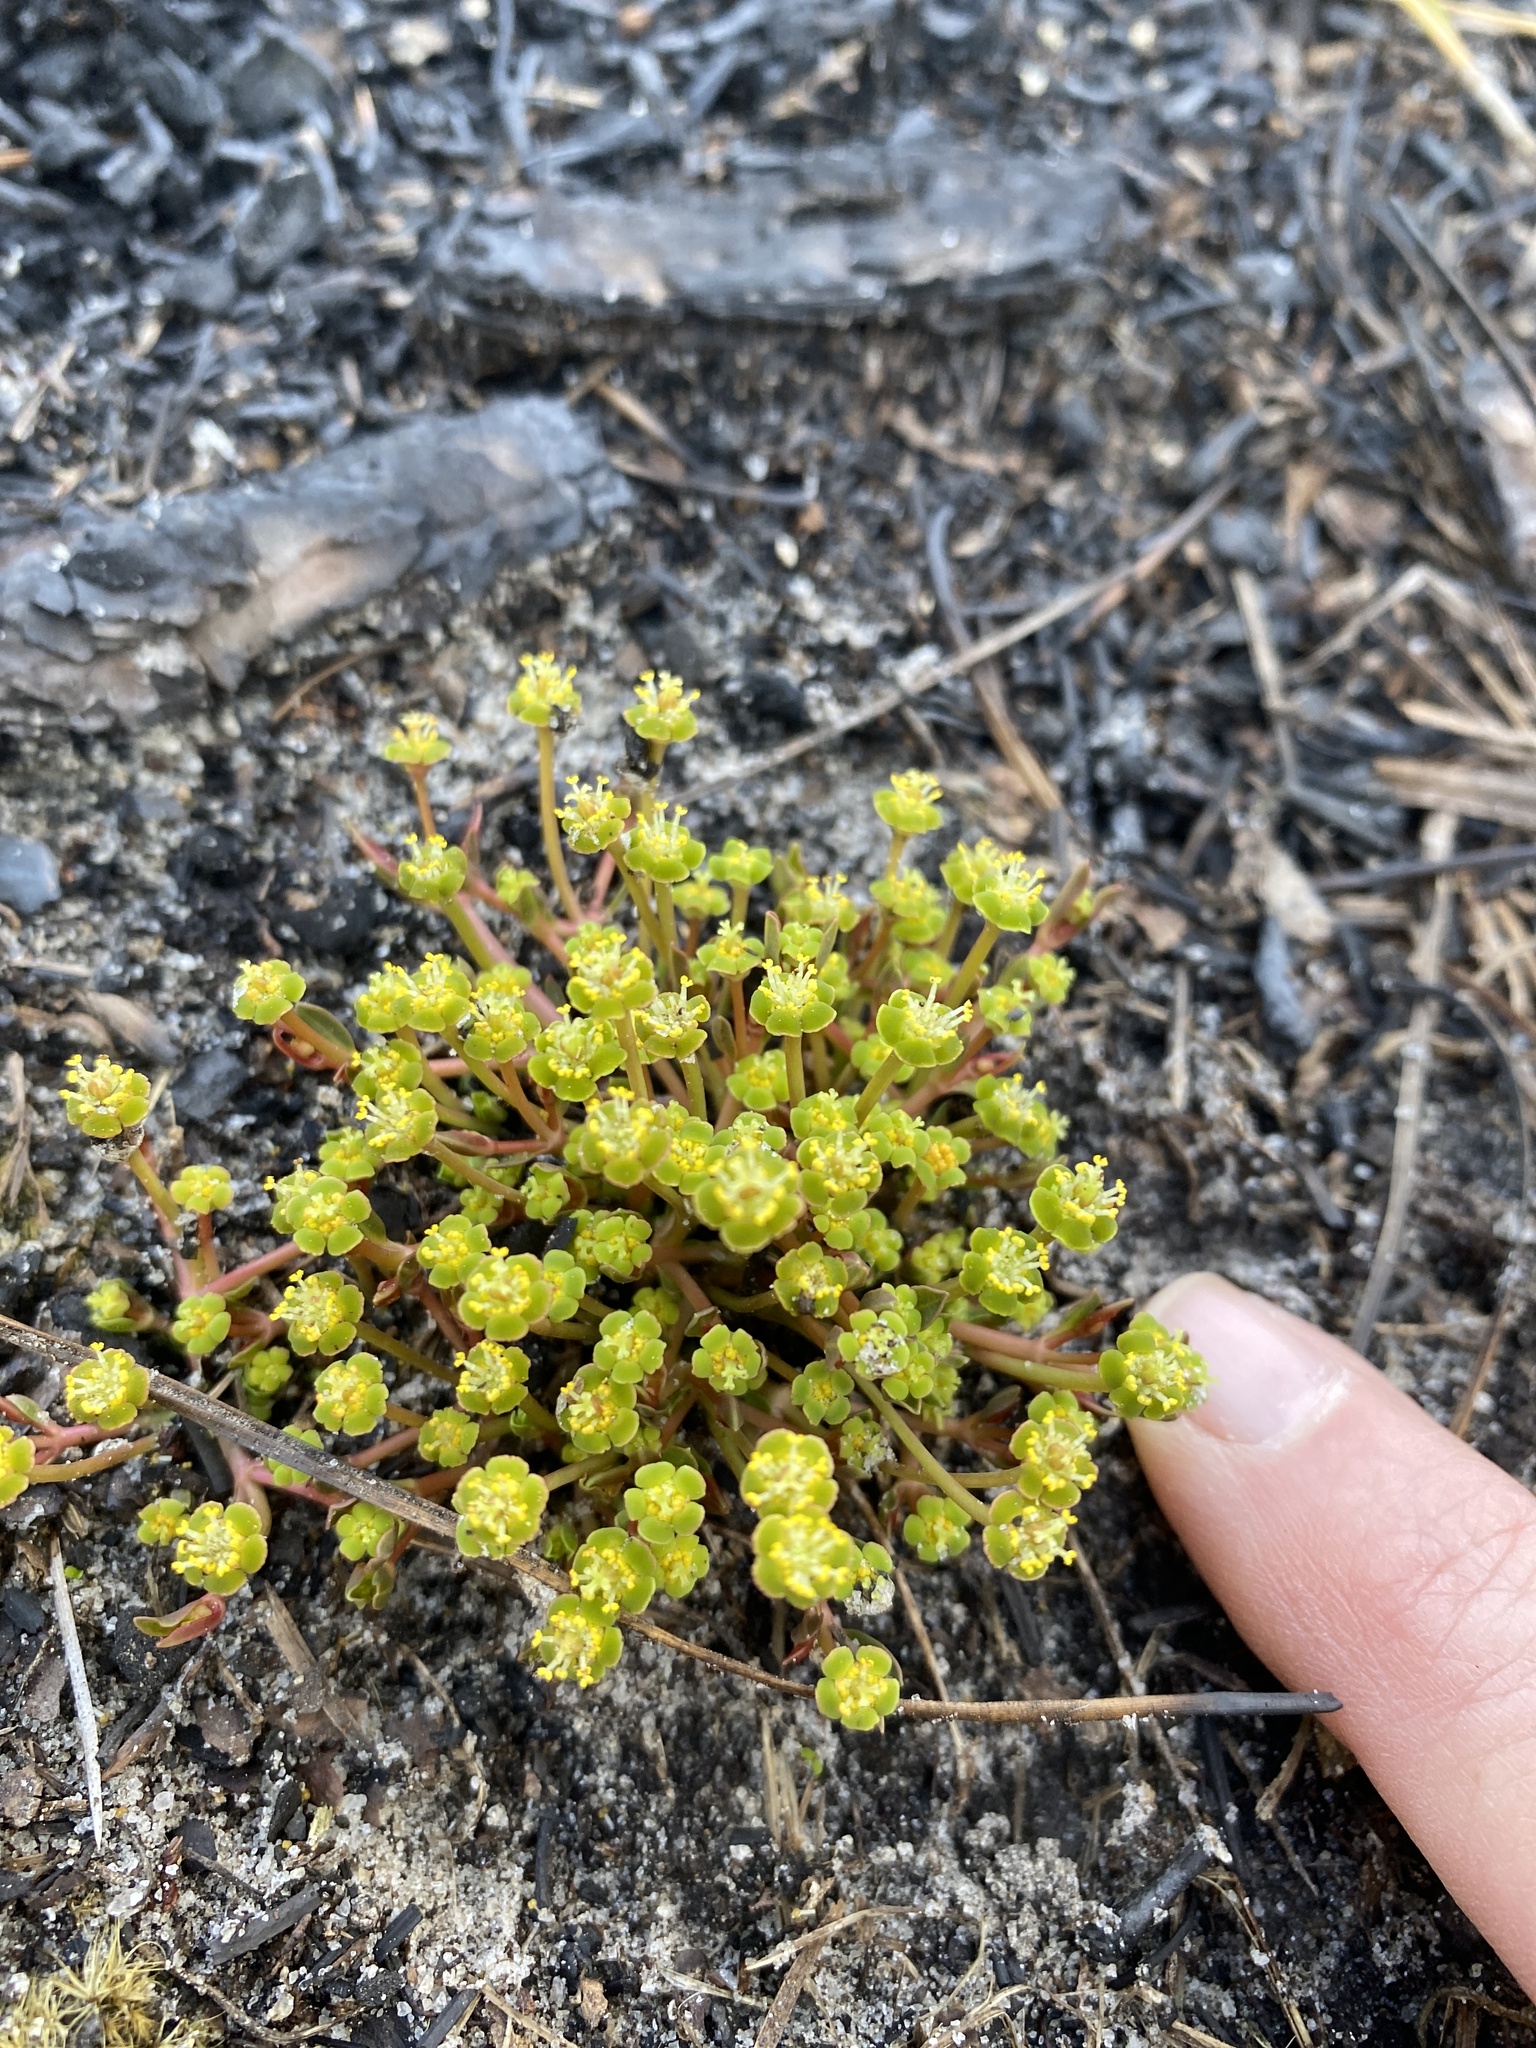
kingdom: Plantae
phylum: Tracheophyta
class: Magnoliopsida
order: Malpighiales
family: Euphorbiaceae
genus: Euphorbia
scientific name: Euphorbia ipecacuanhae
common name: Carolina ipecac
